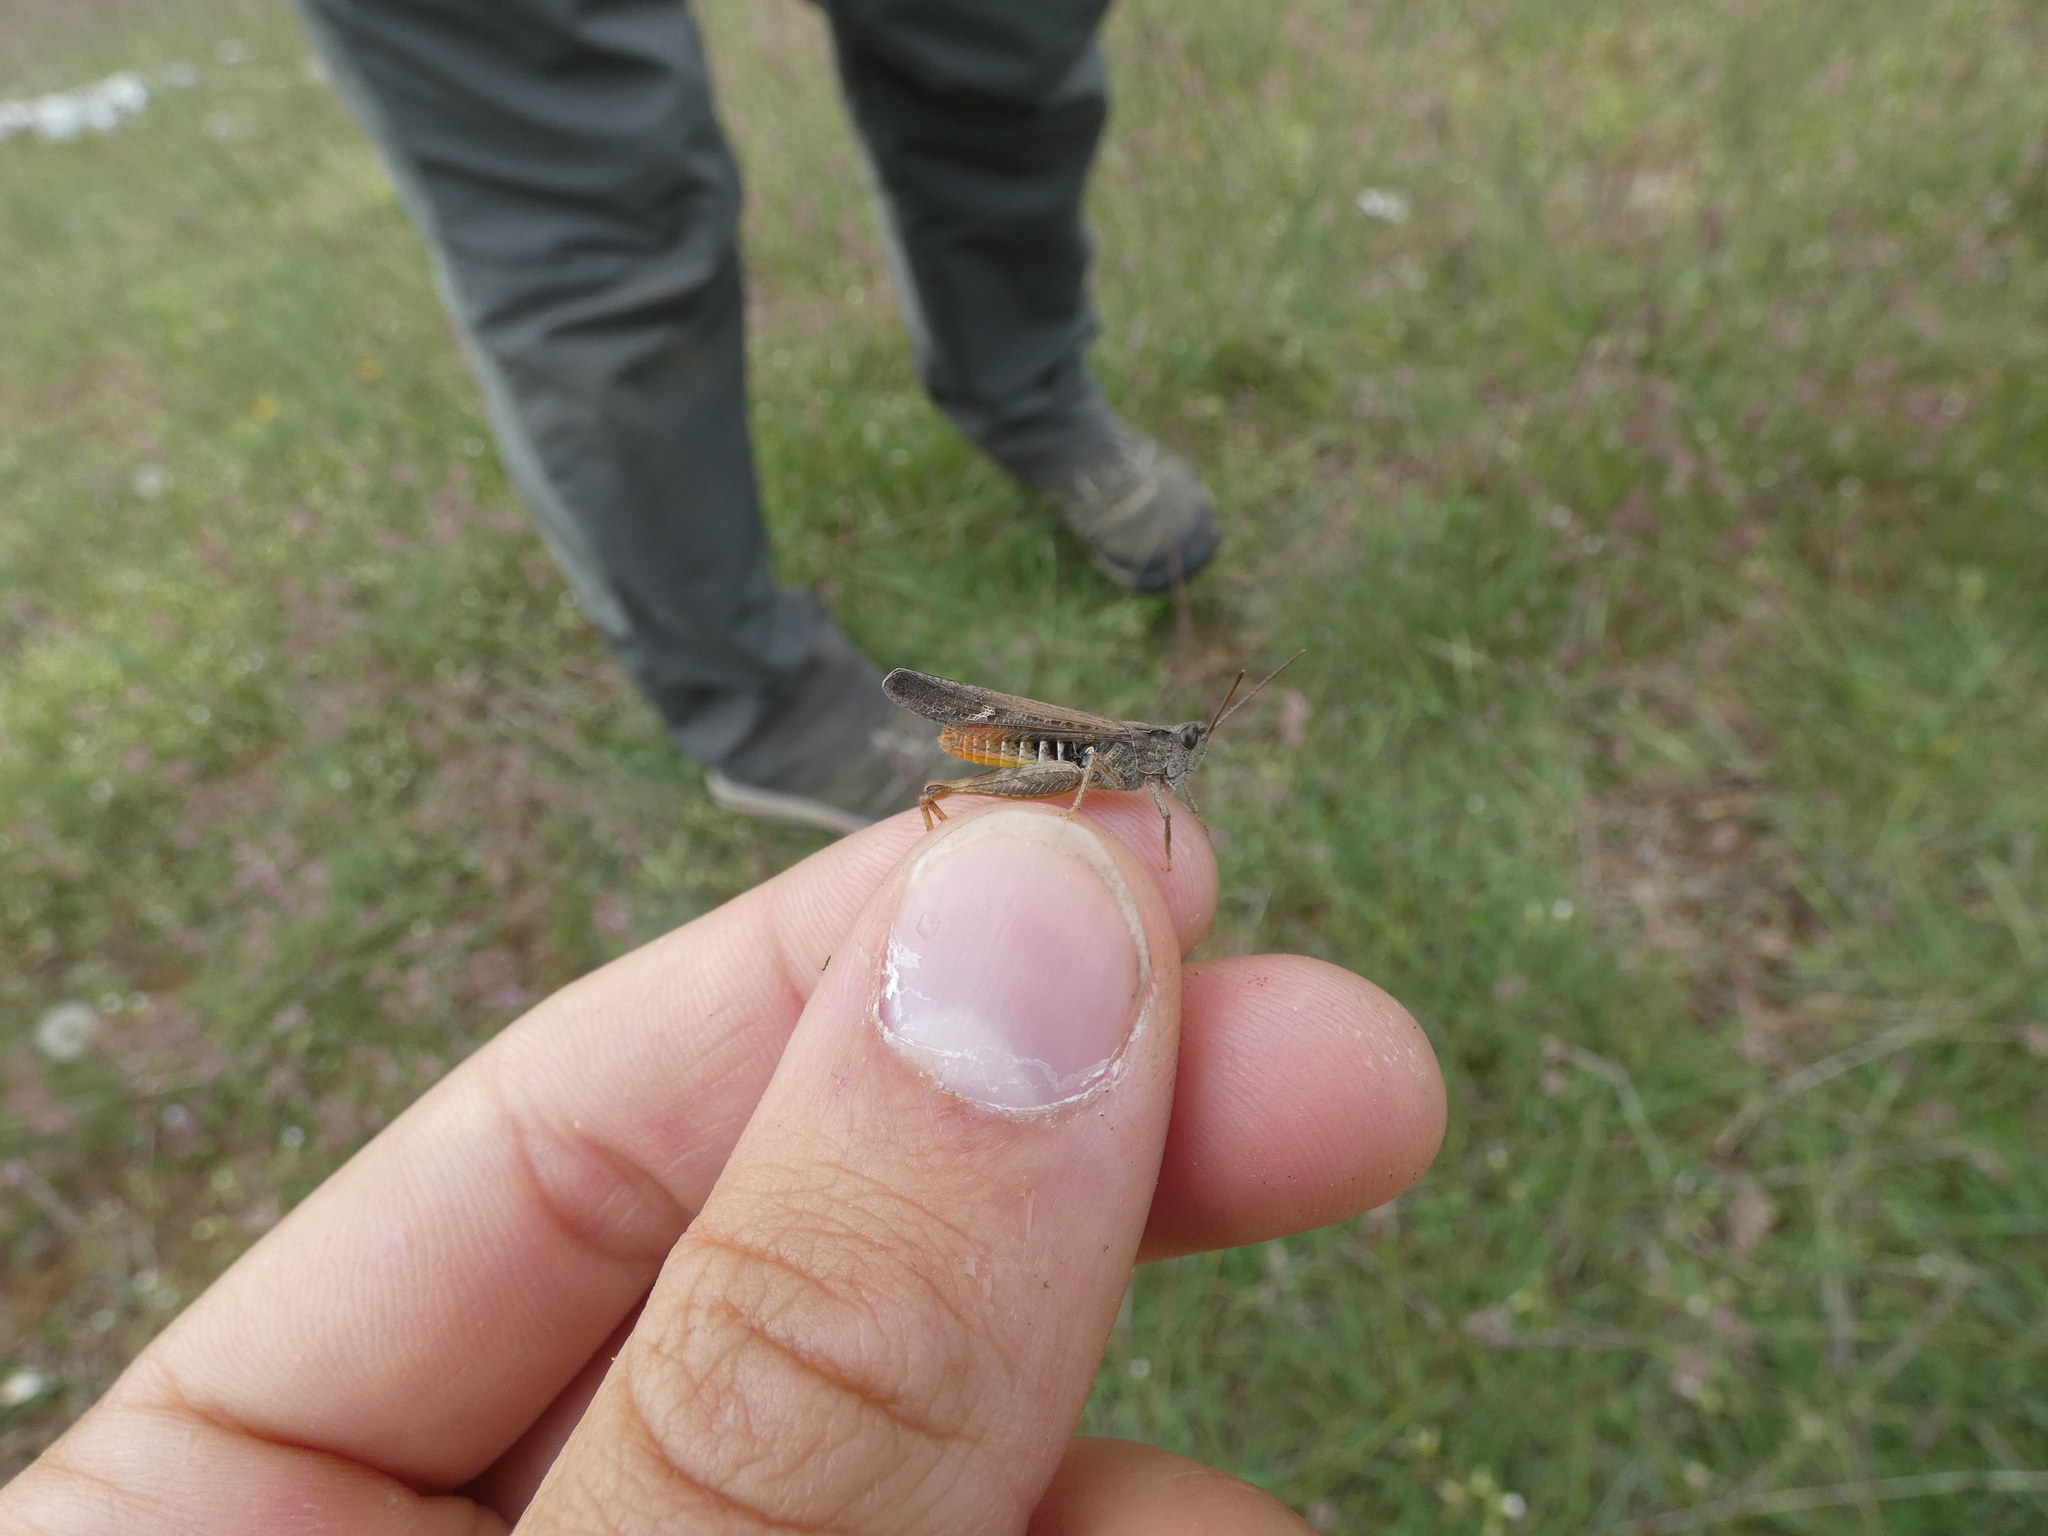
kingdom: Animalia
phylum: Arthropoda
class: Insecta
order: Orthoptera
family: Acrididae
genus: Chorthippus
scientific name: Chorthippus brunneus
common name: Field grasshopper
